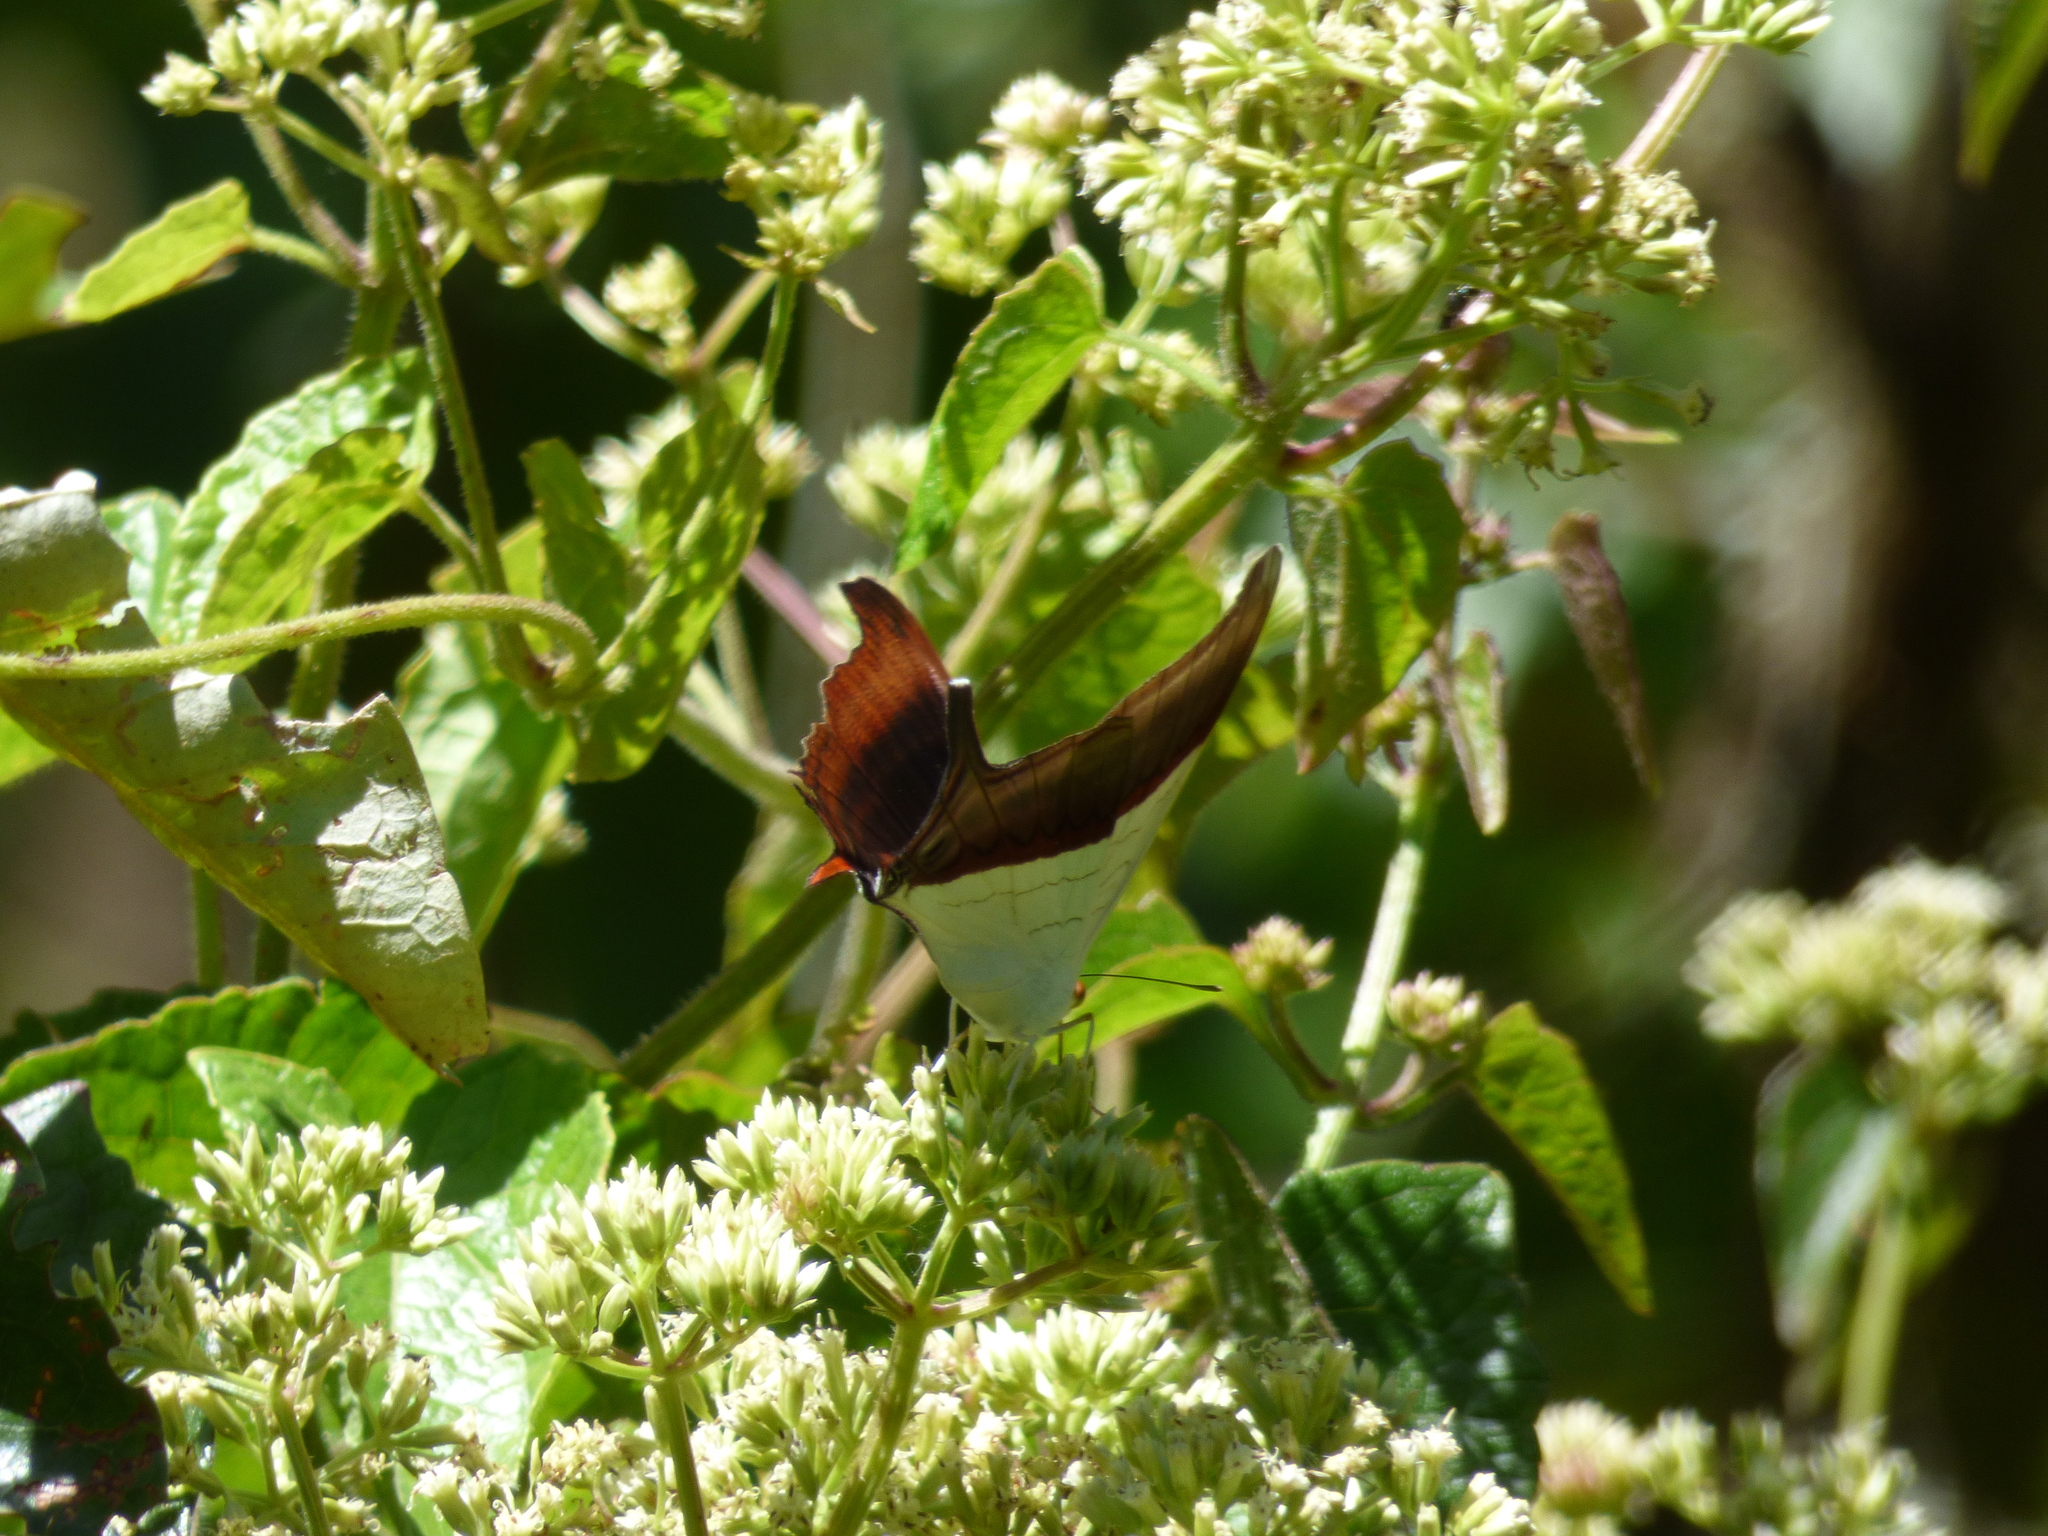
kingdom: Animalia
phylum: Arthropoda
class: Insecta
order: Lepidoptera
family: Nymphalidae
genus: Marpesia
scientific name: Marpesia zerynthia
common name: Waiter daggerwing
